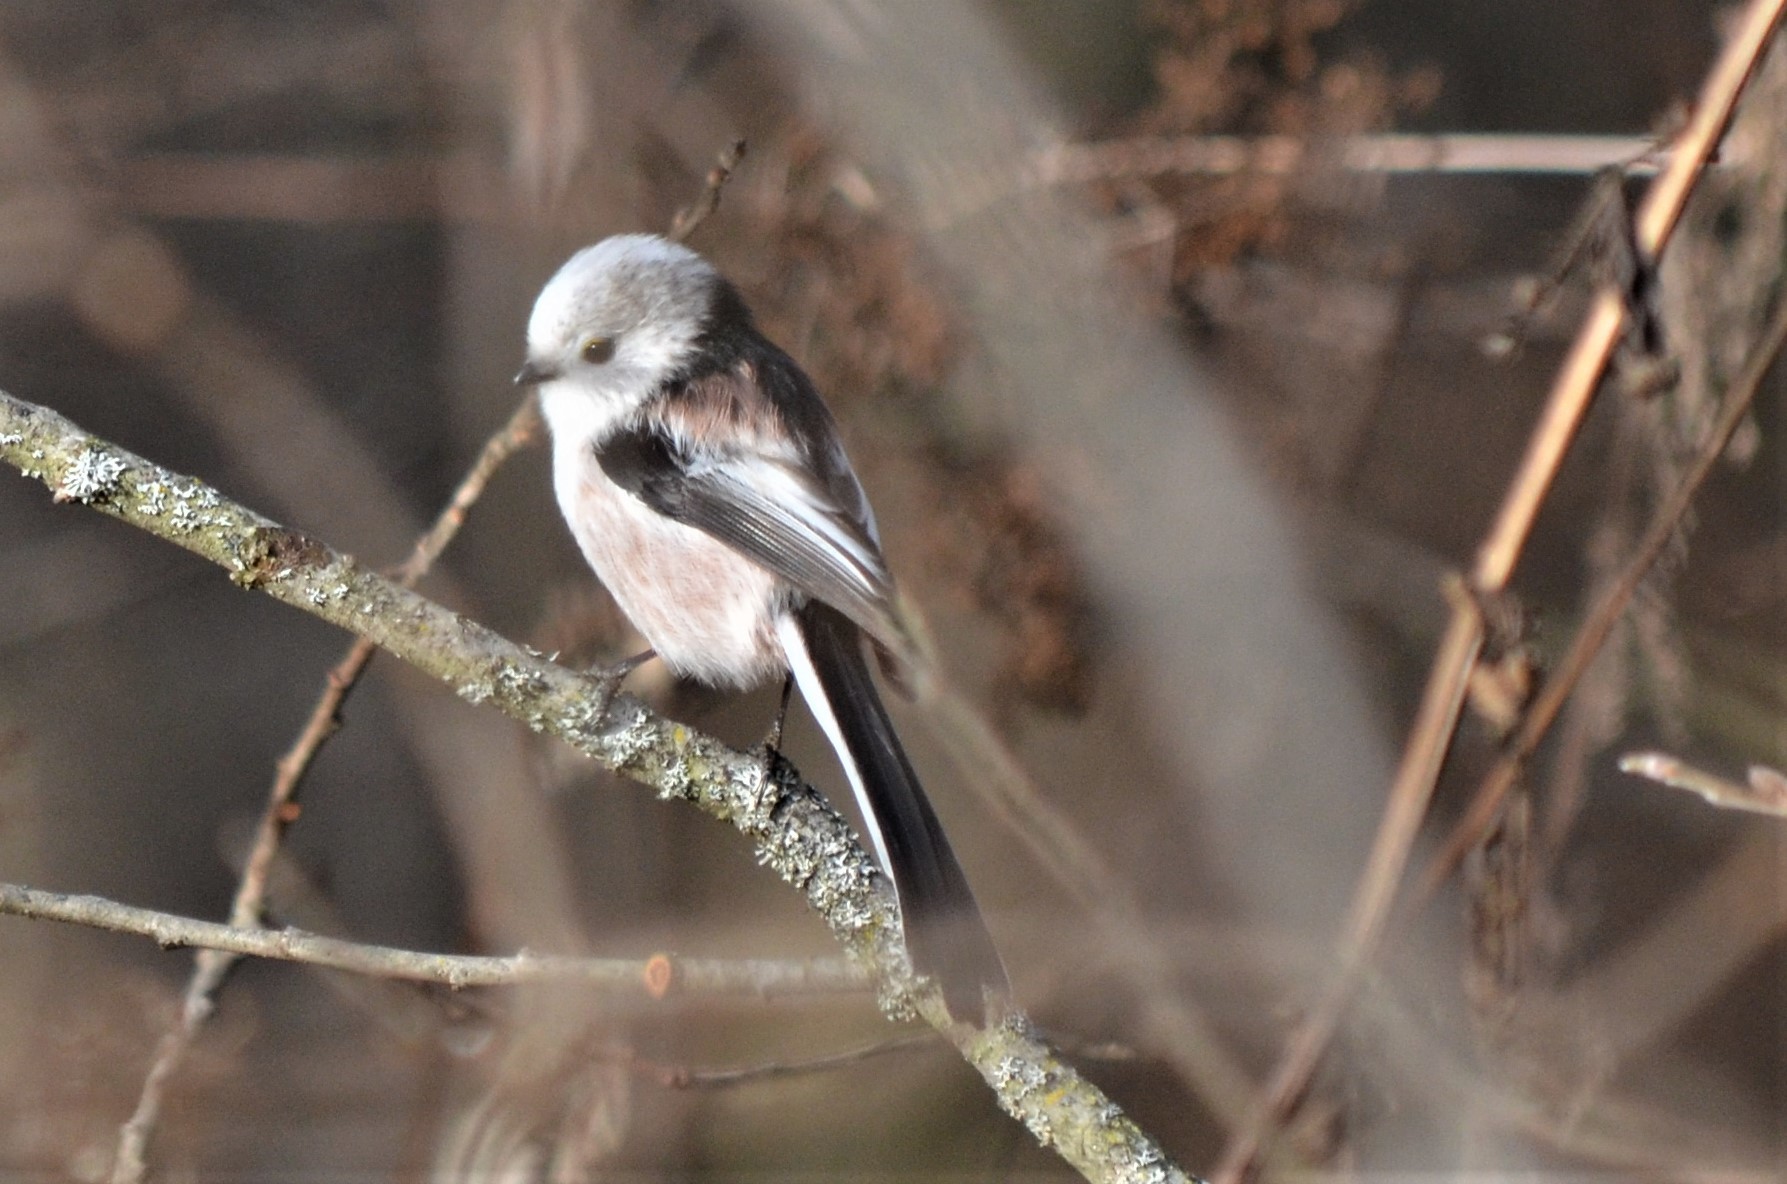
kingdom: Animalia
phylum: Chordata
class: Aves
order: Passeriformes
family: Aegithalidae
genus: Aegithalos
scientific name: Aegithalos caudatus
